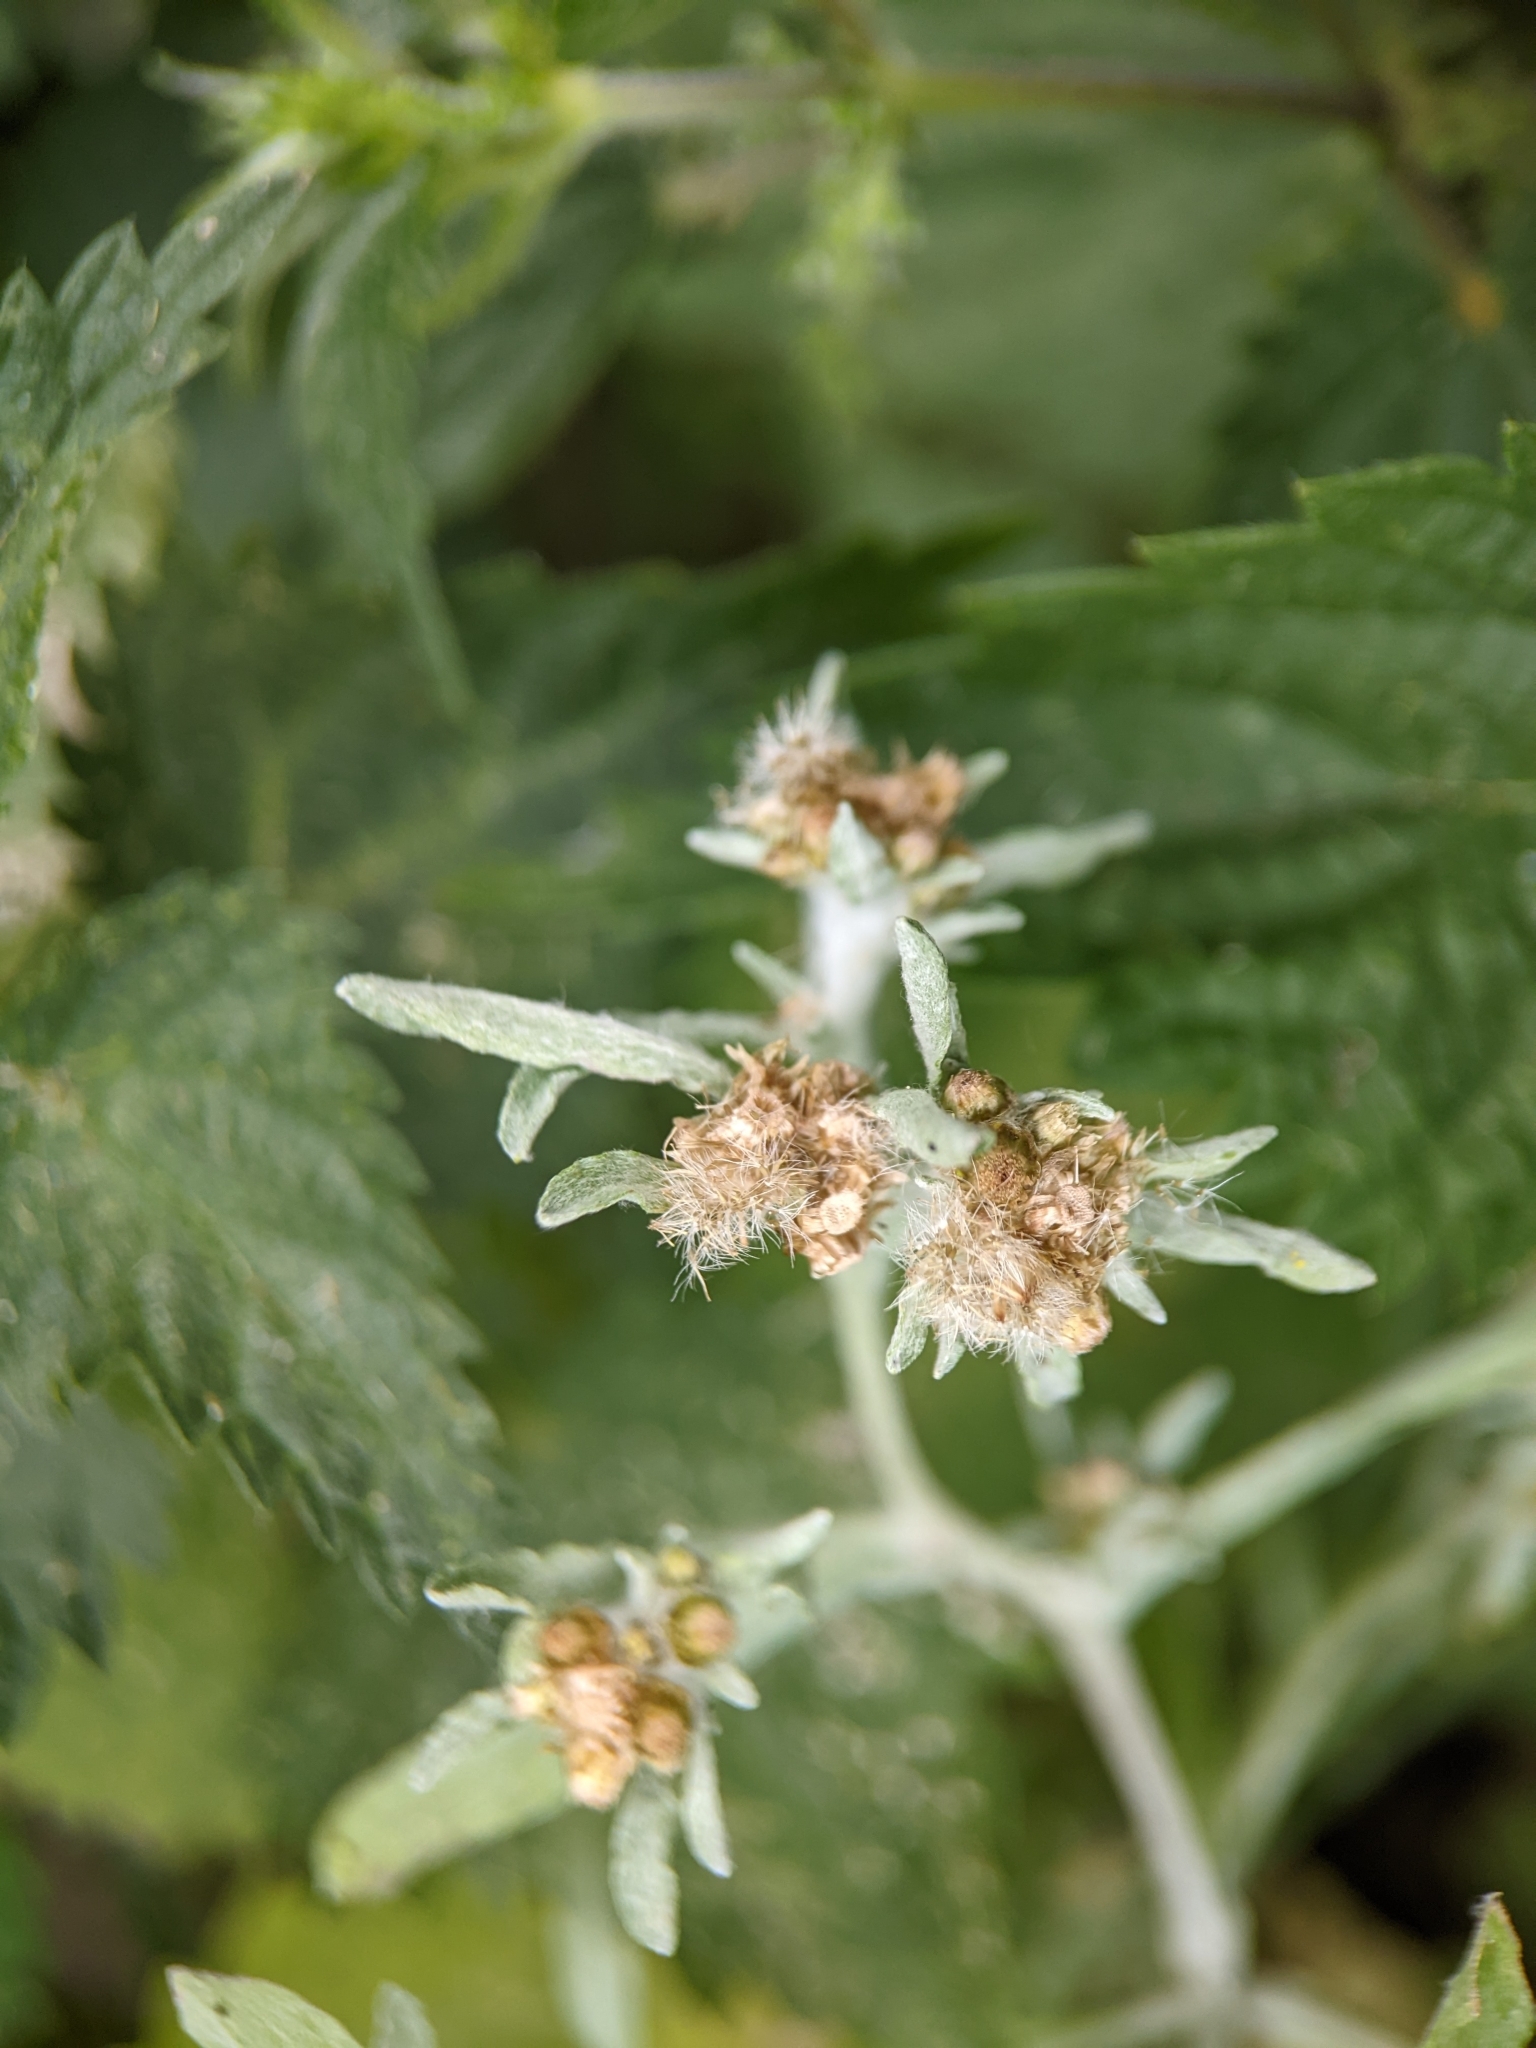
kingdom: Plantae
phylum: Tracheophyta
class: Magnoliopsida
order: Asterales
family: Asteraceae
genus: Gnaphalium
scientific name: Gnaphalium uliginosum
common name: Marsh cudweed
